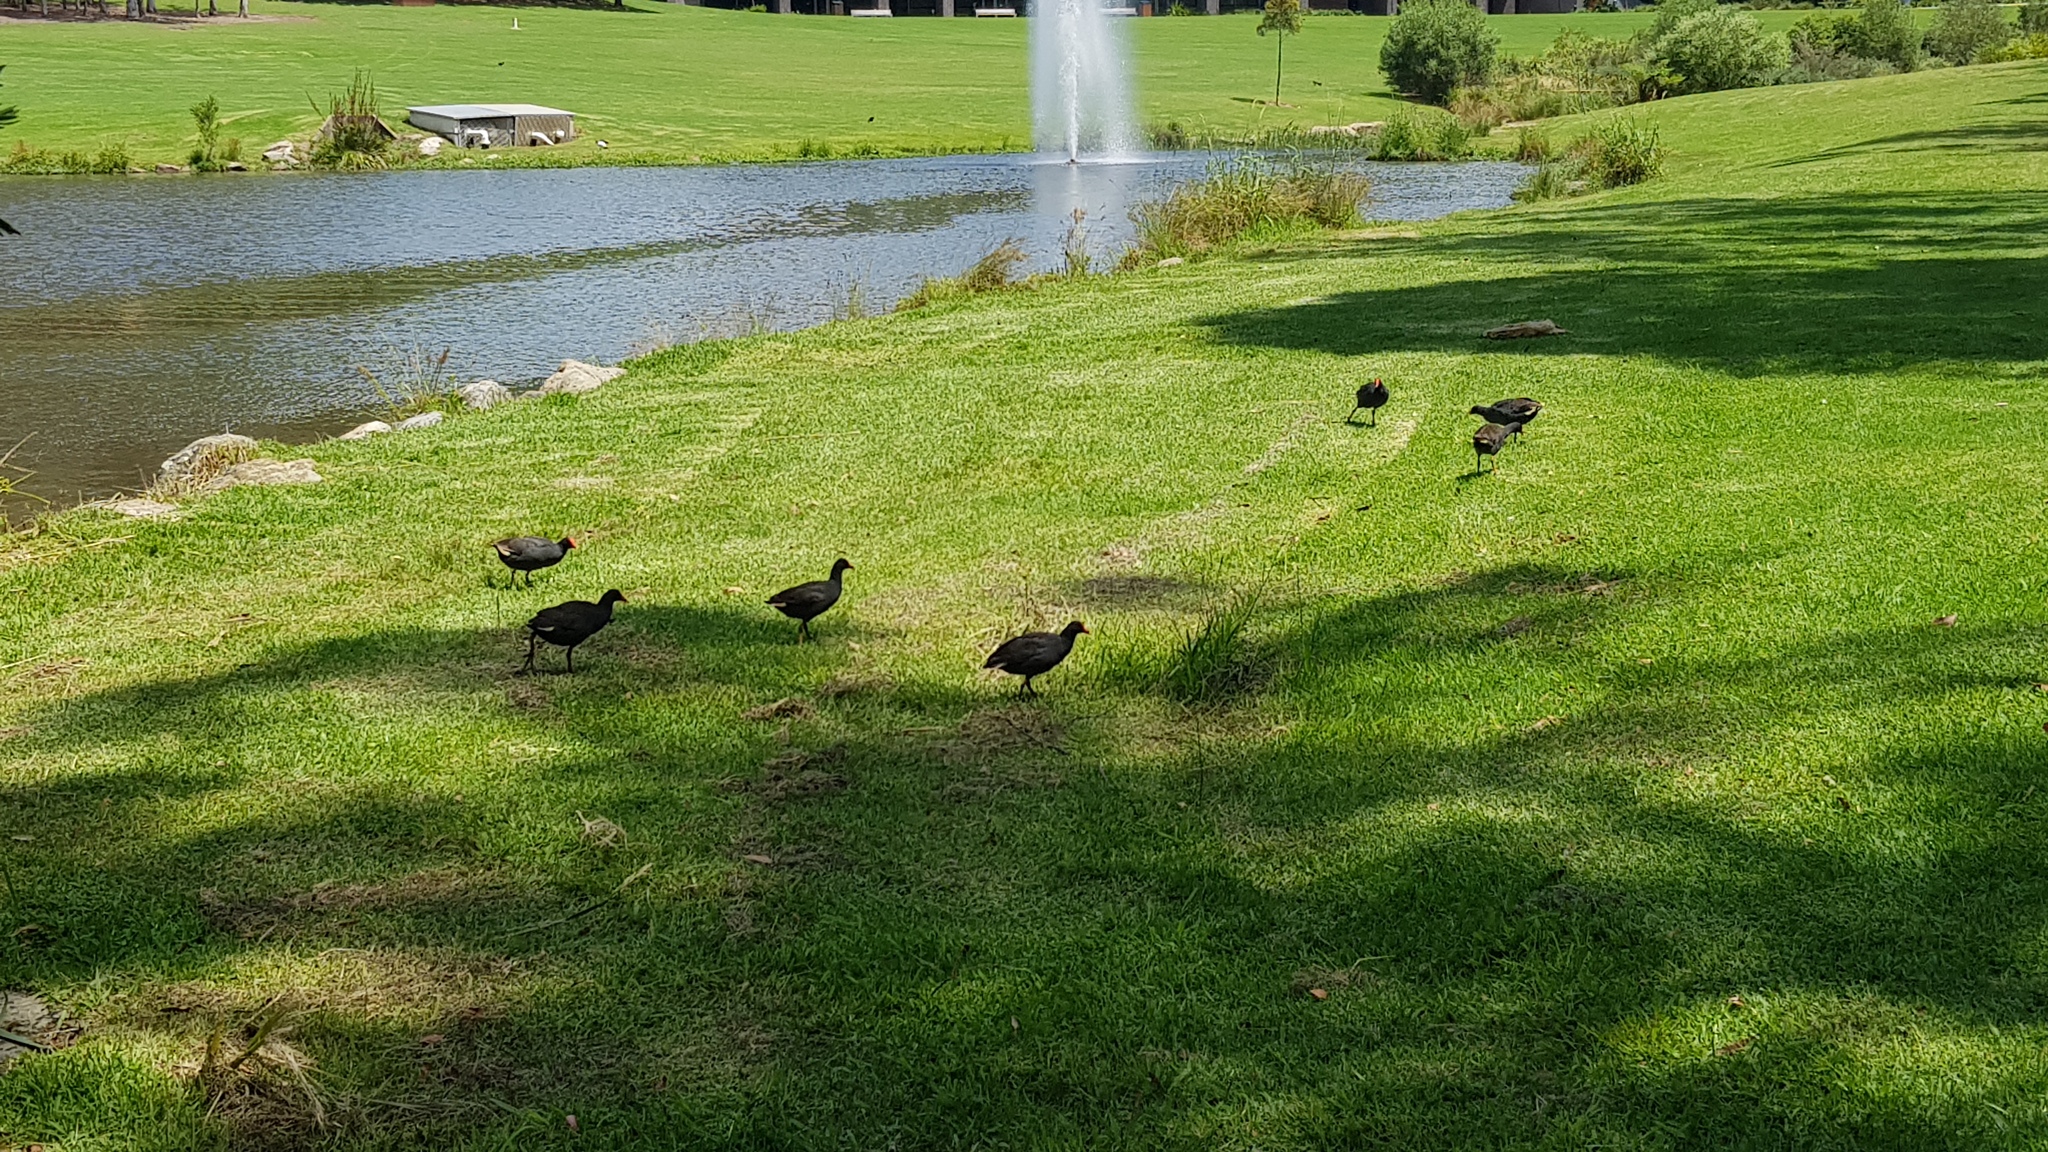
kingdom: Animalia
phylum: Chordata
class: Aves
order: Gruiformes
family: Rallidae
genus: Gallinula
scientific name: Gallinula tenebrosa
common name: Dusky moorhen
